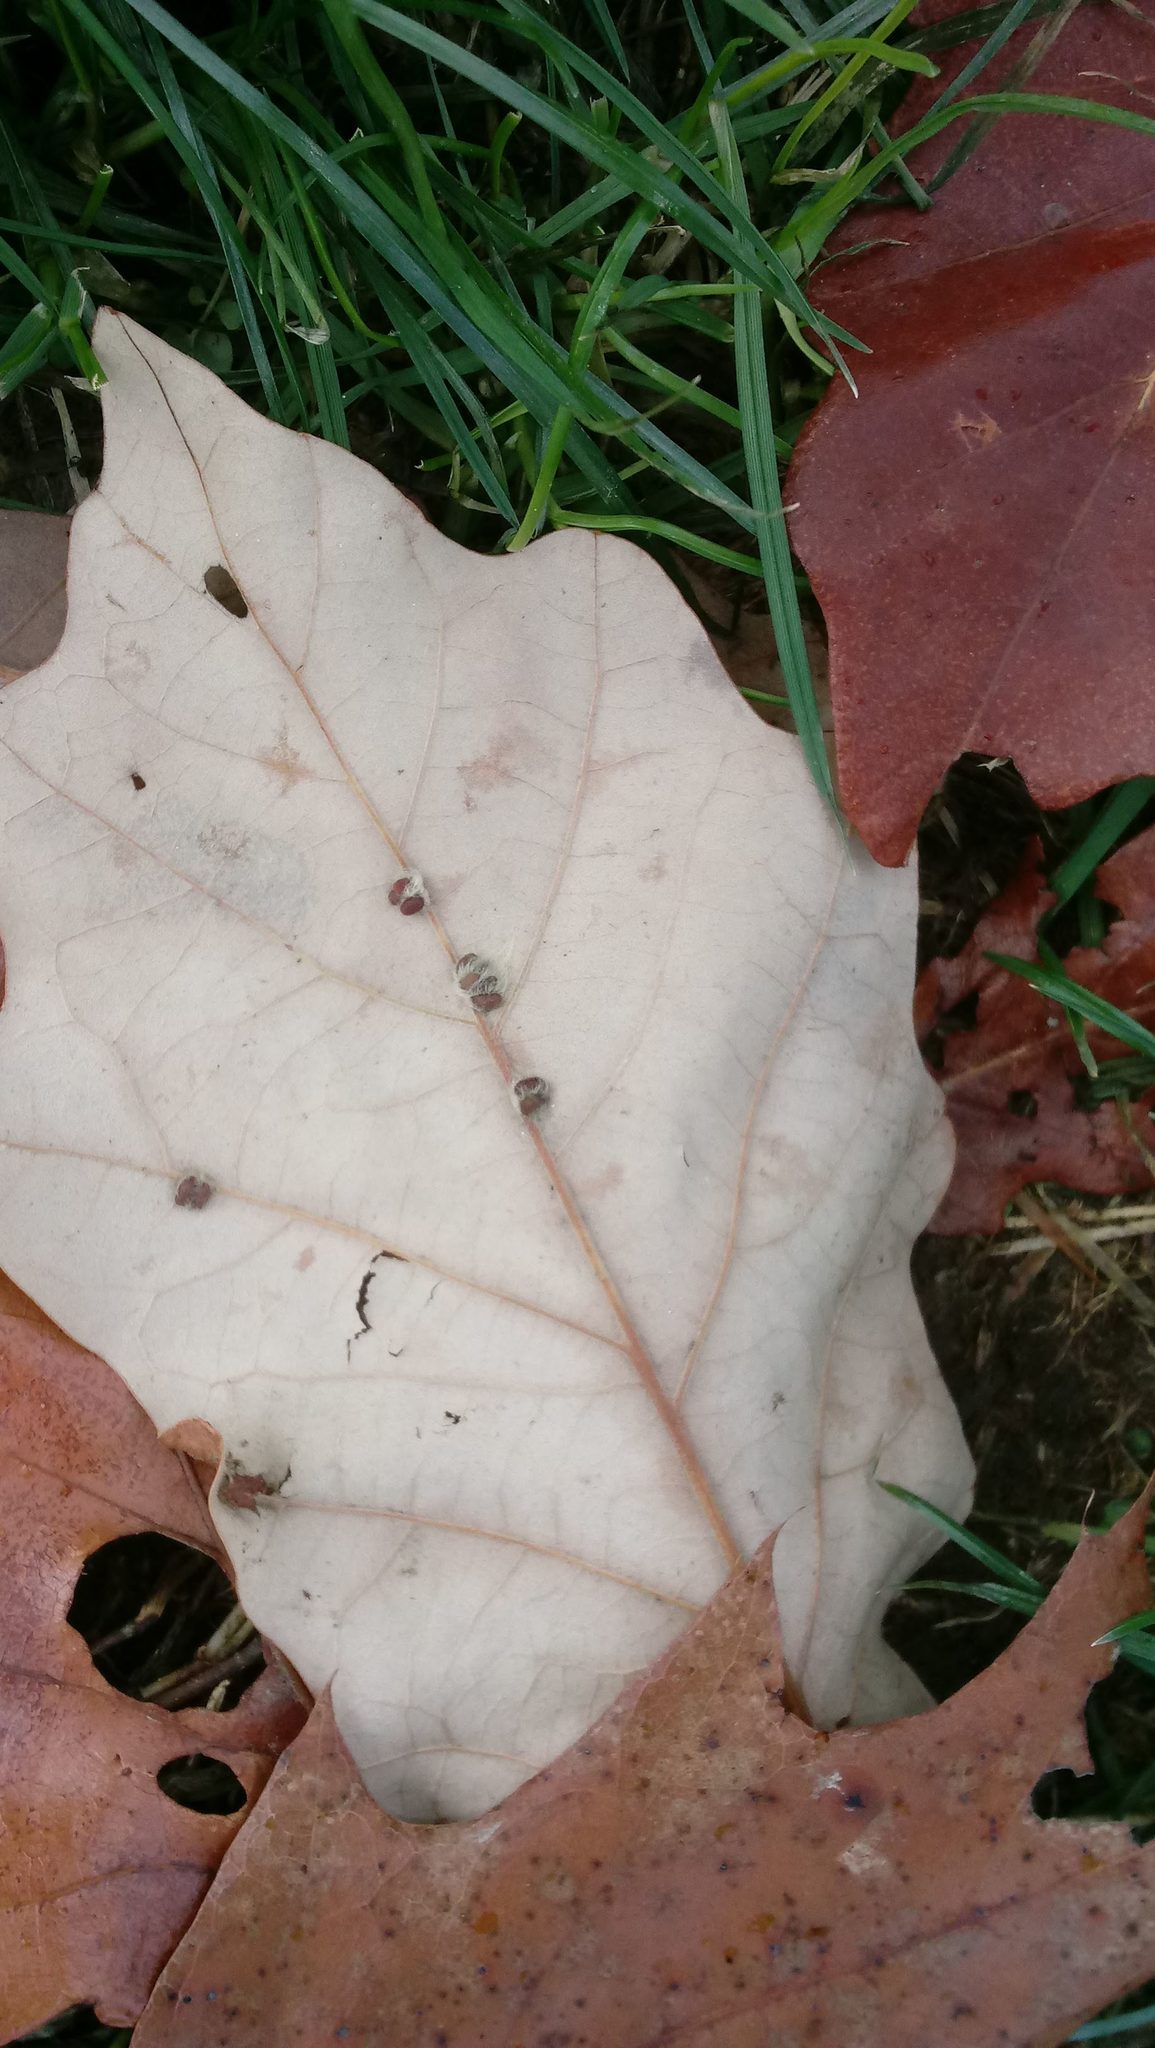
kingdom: Animalia
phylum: Arthropoda
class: Insecta
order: Hymenoptera
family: Cynipidae
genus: Andricus
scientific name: Andricus Druon ignotum
